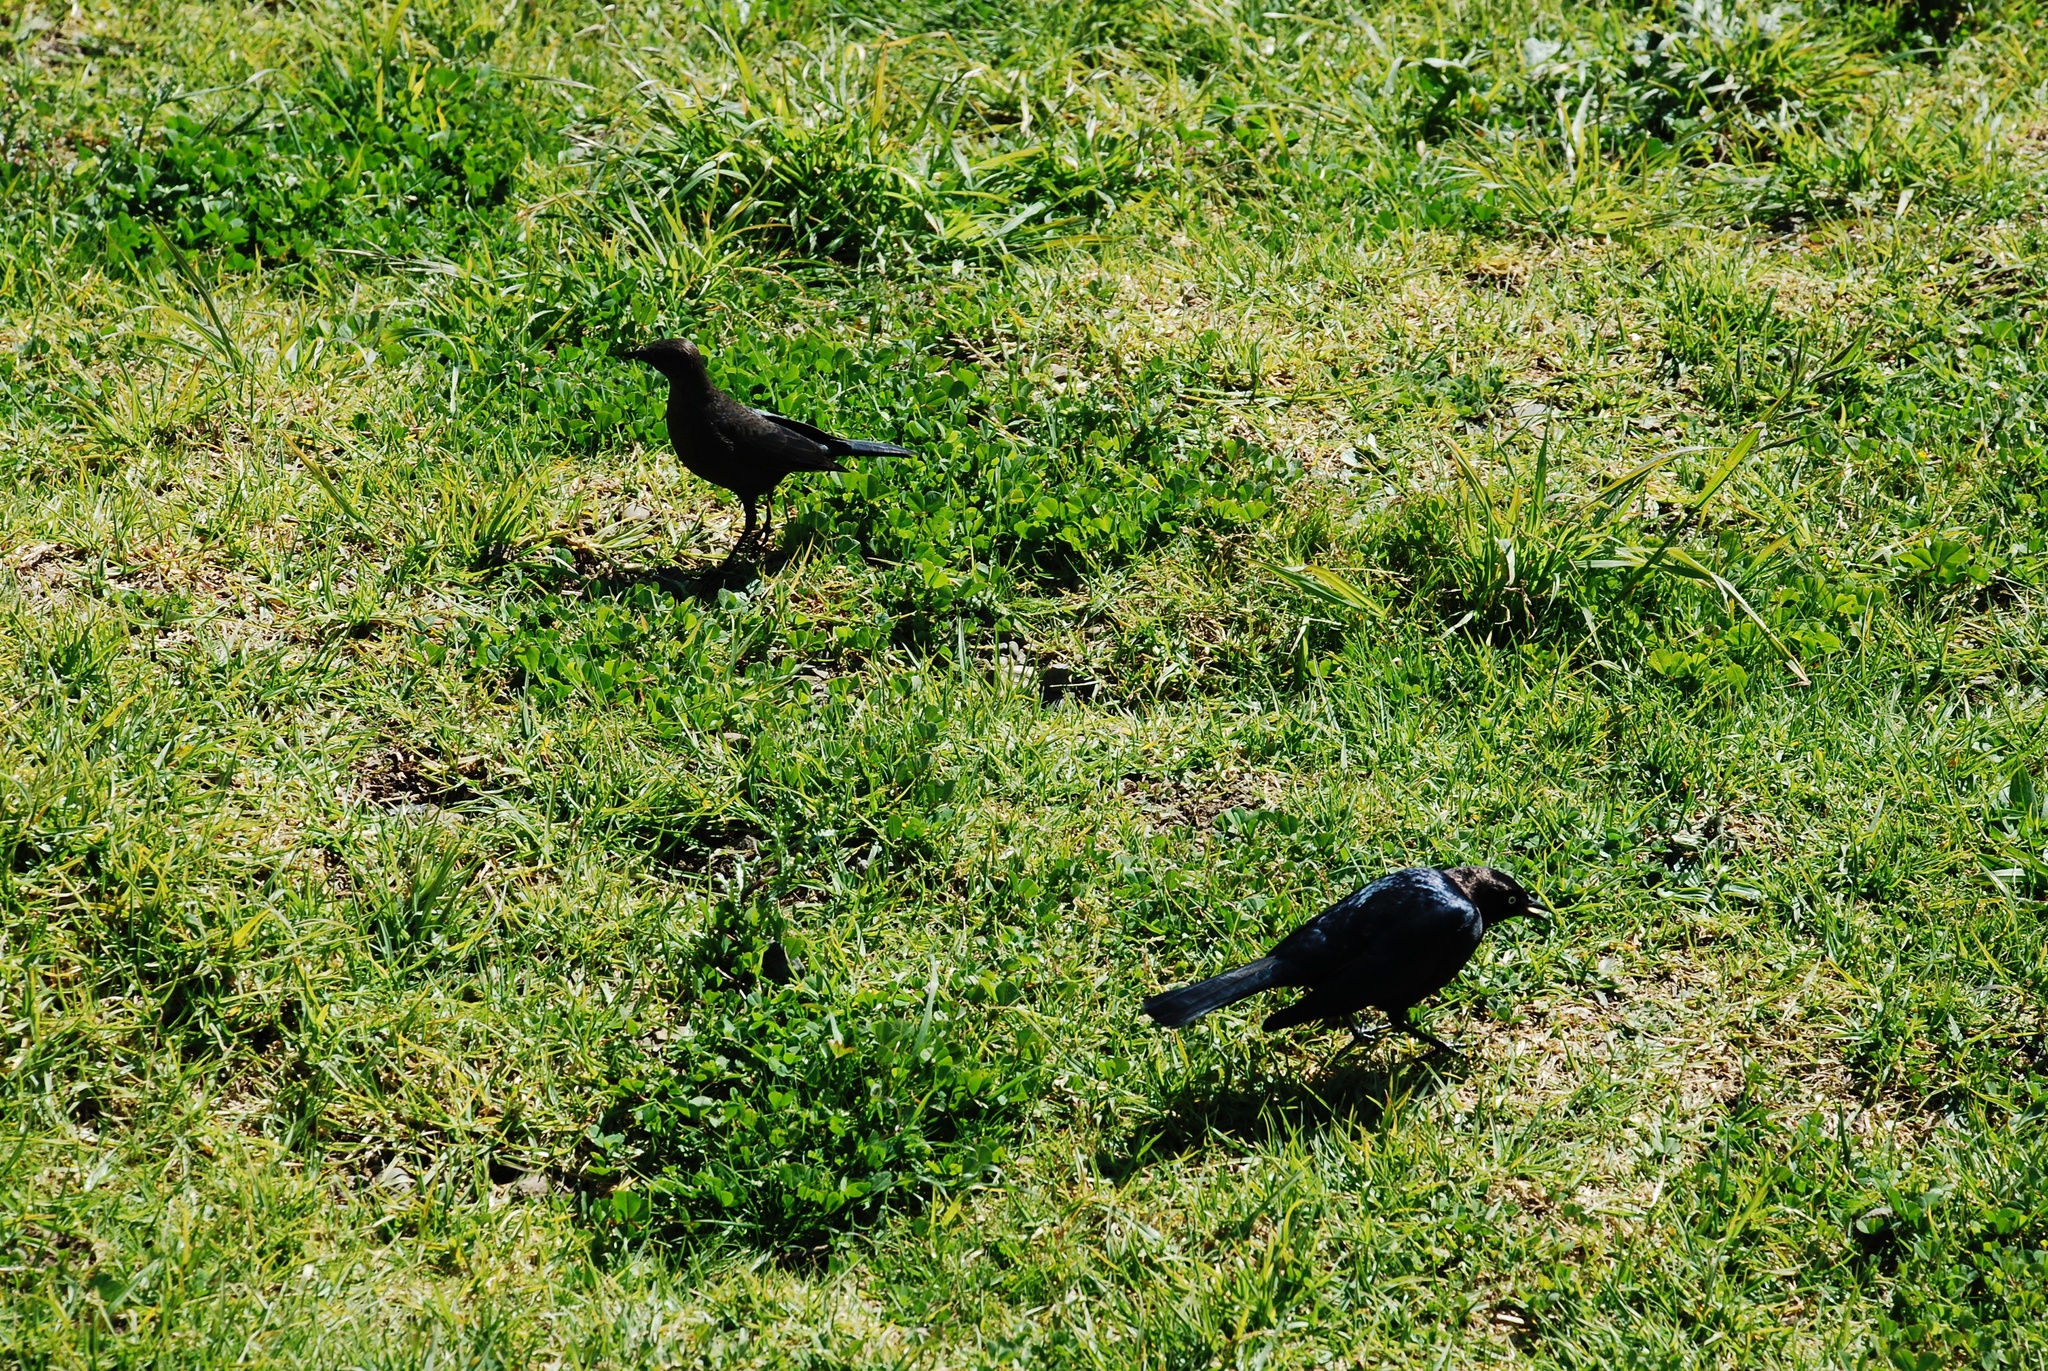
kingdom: Animalia
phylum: Chordata
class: Aves
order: Passeriformes
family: Icteridae
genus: Euphagus
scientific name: Euphagus cyanocephalus
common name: Brewer's blackbird
